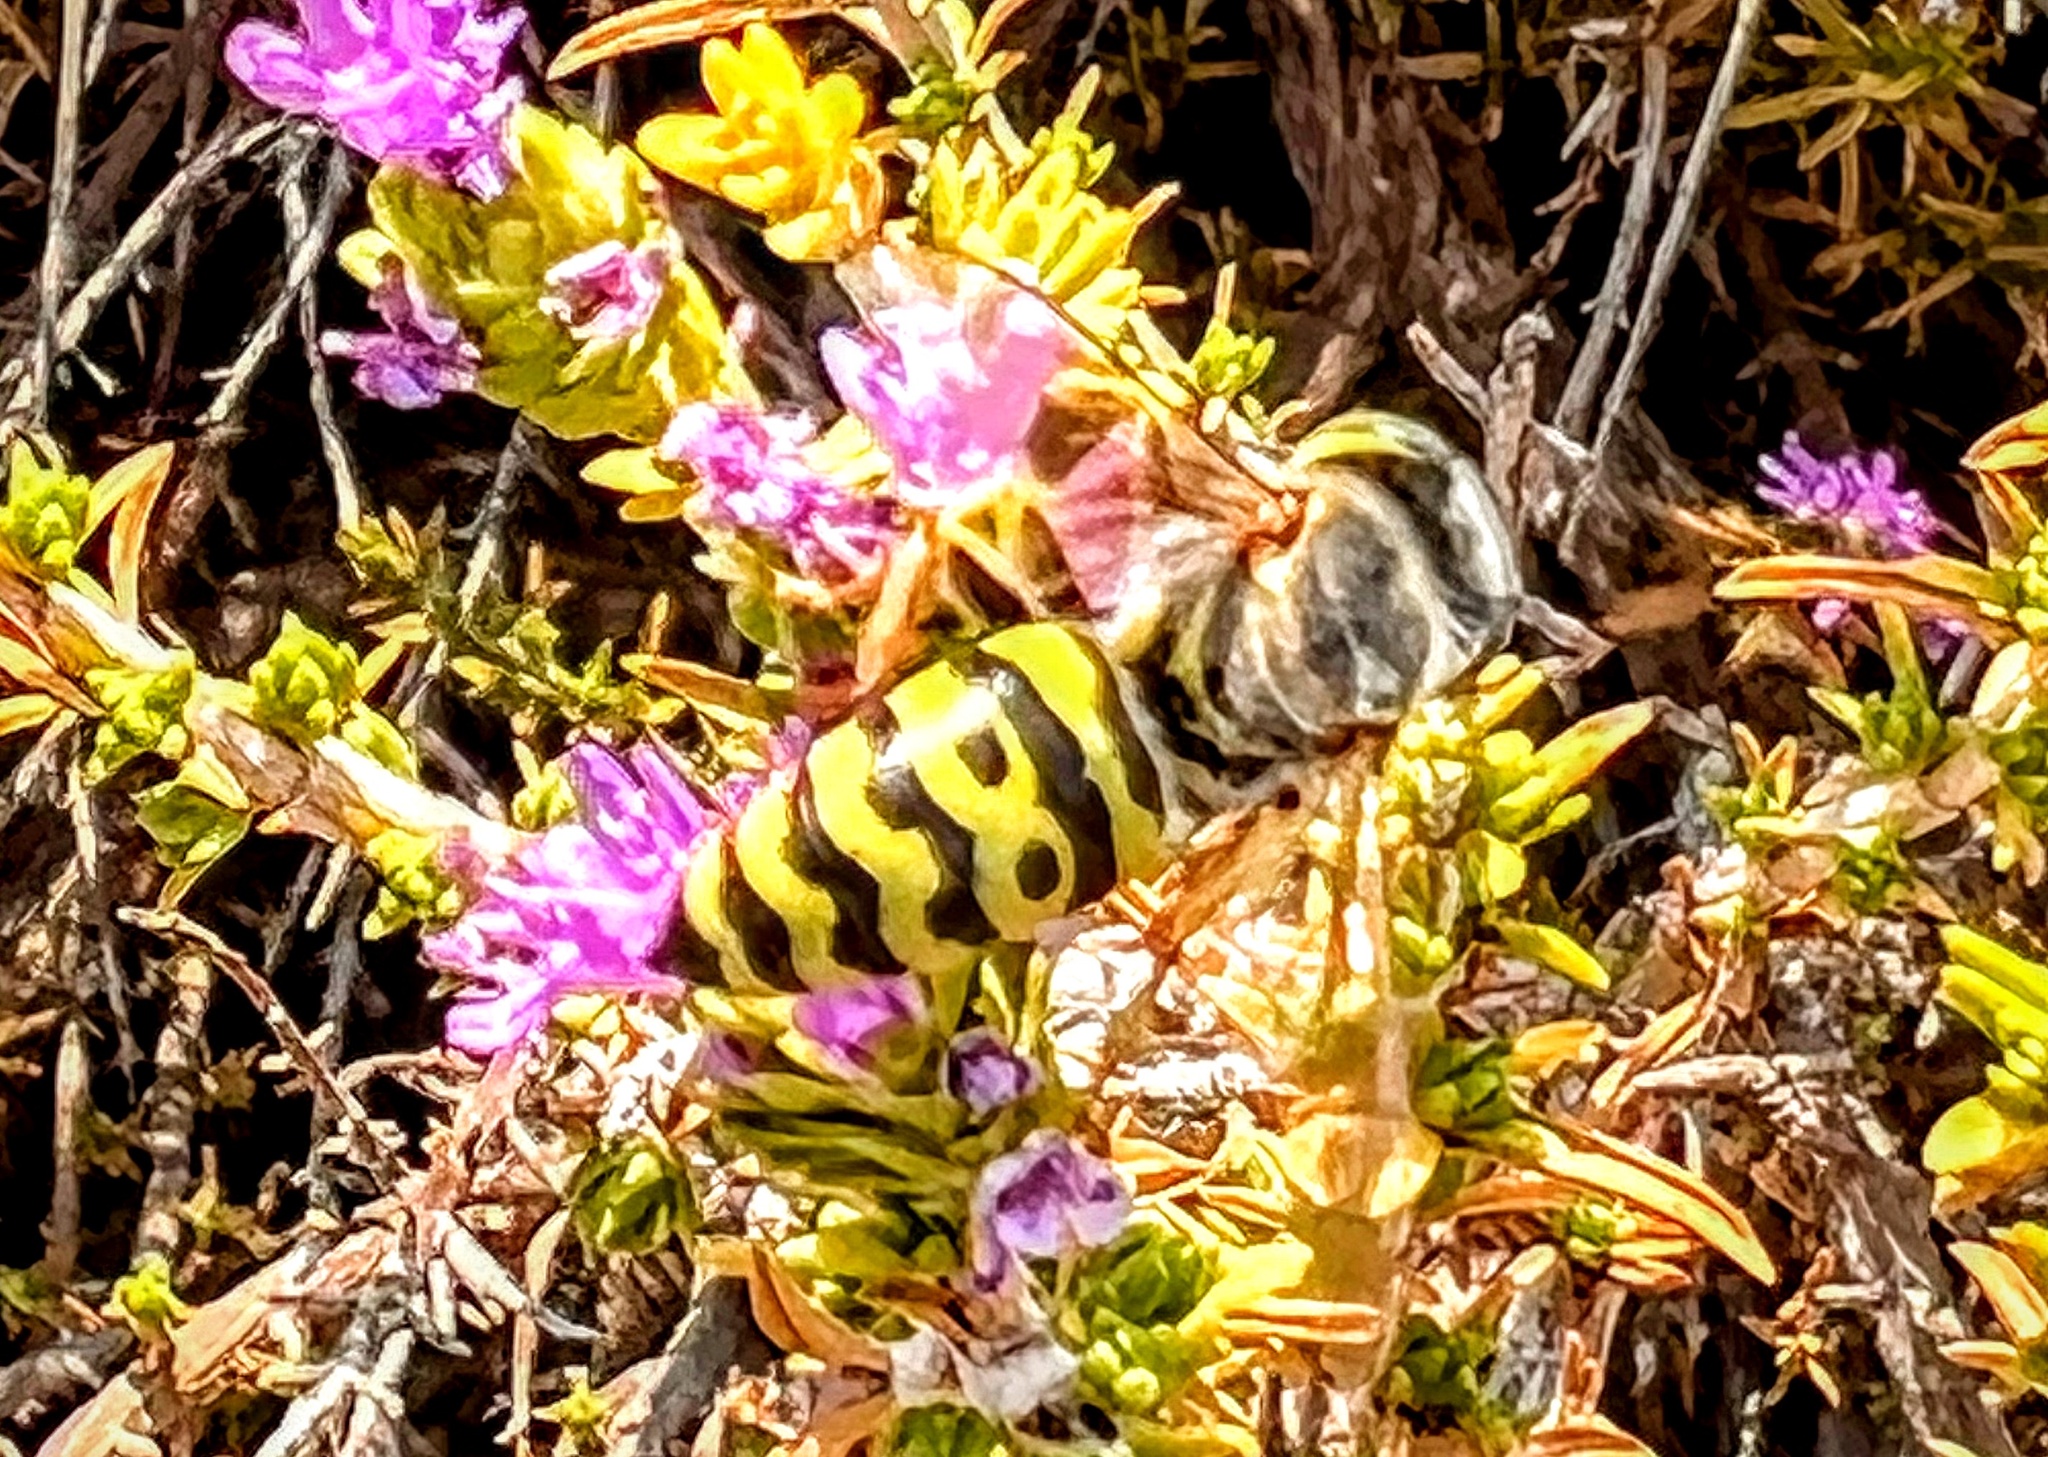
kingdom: Animalia
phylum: Arthropoda
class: Insecta
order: Hymenoptera
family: Crabronidae
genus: Bembix
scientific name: Bembix oculata
